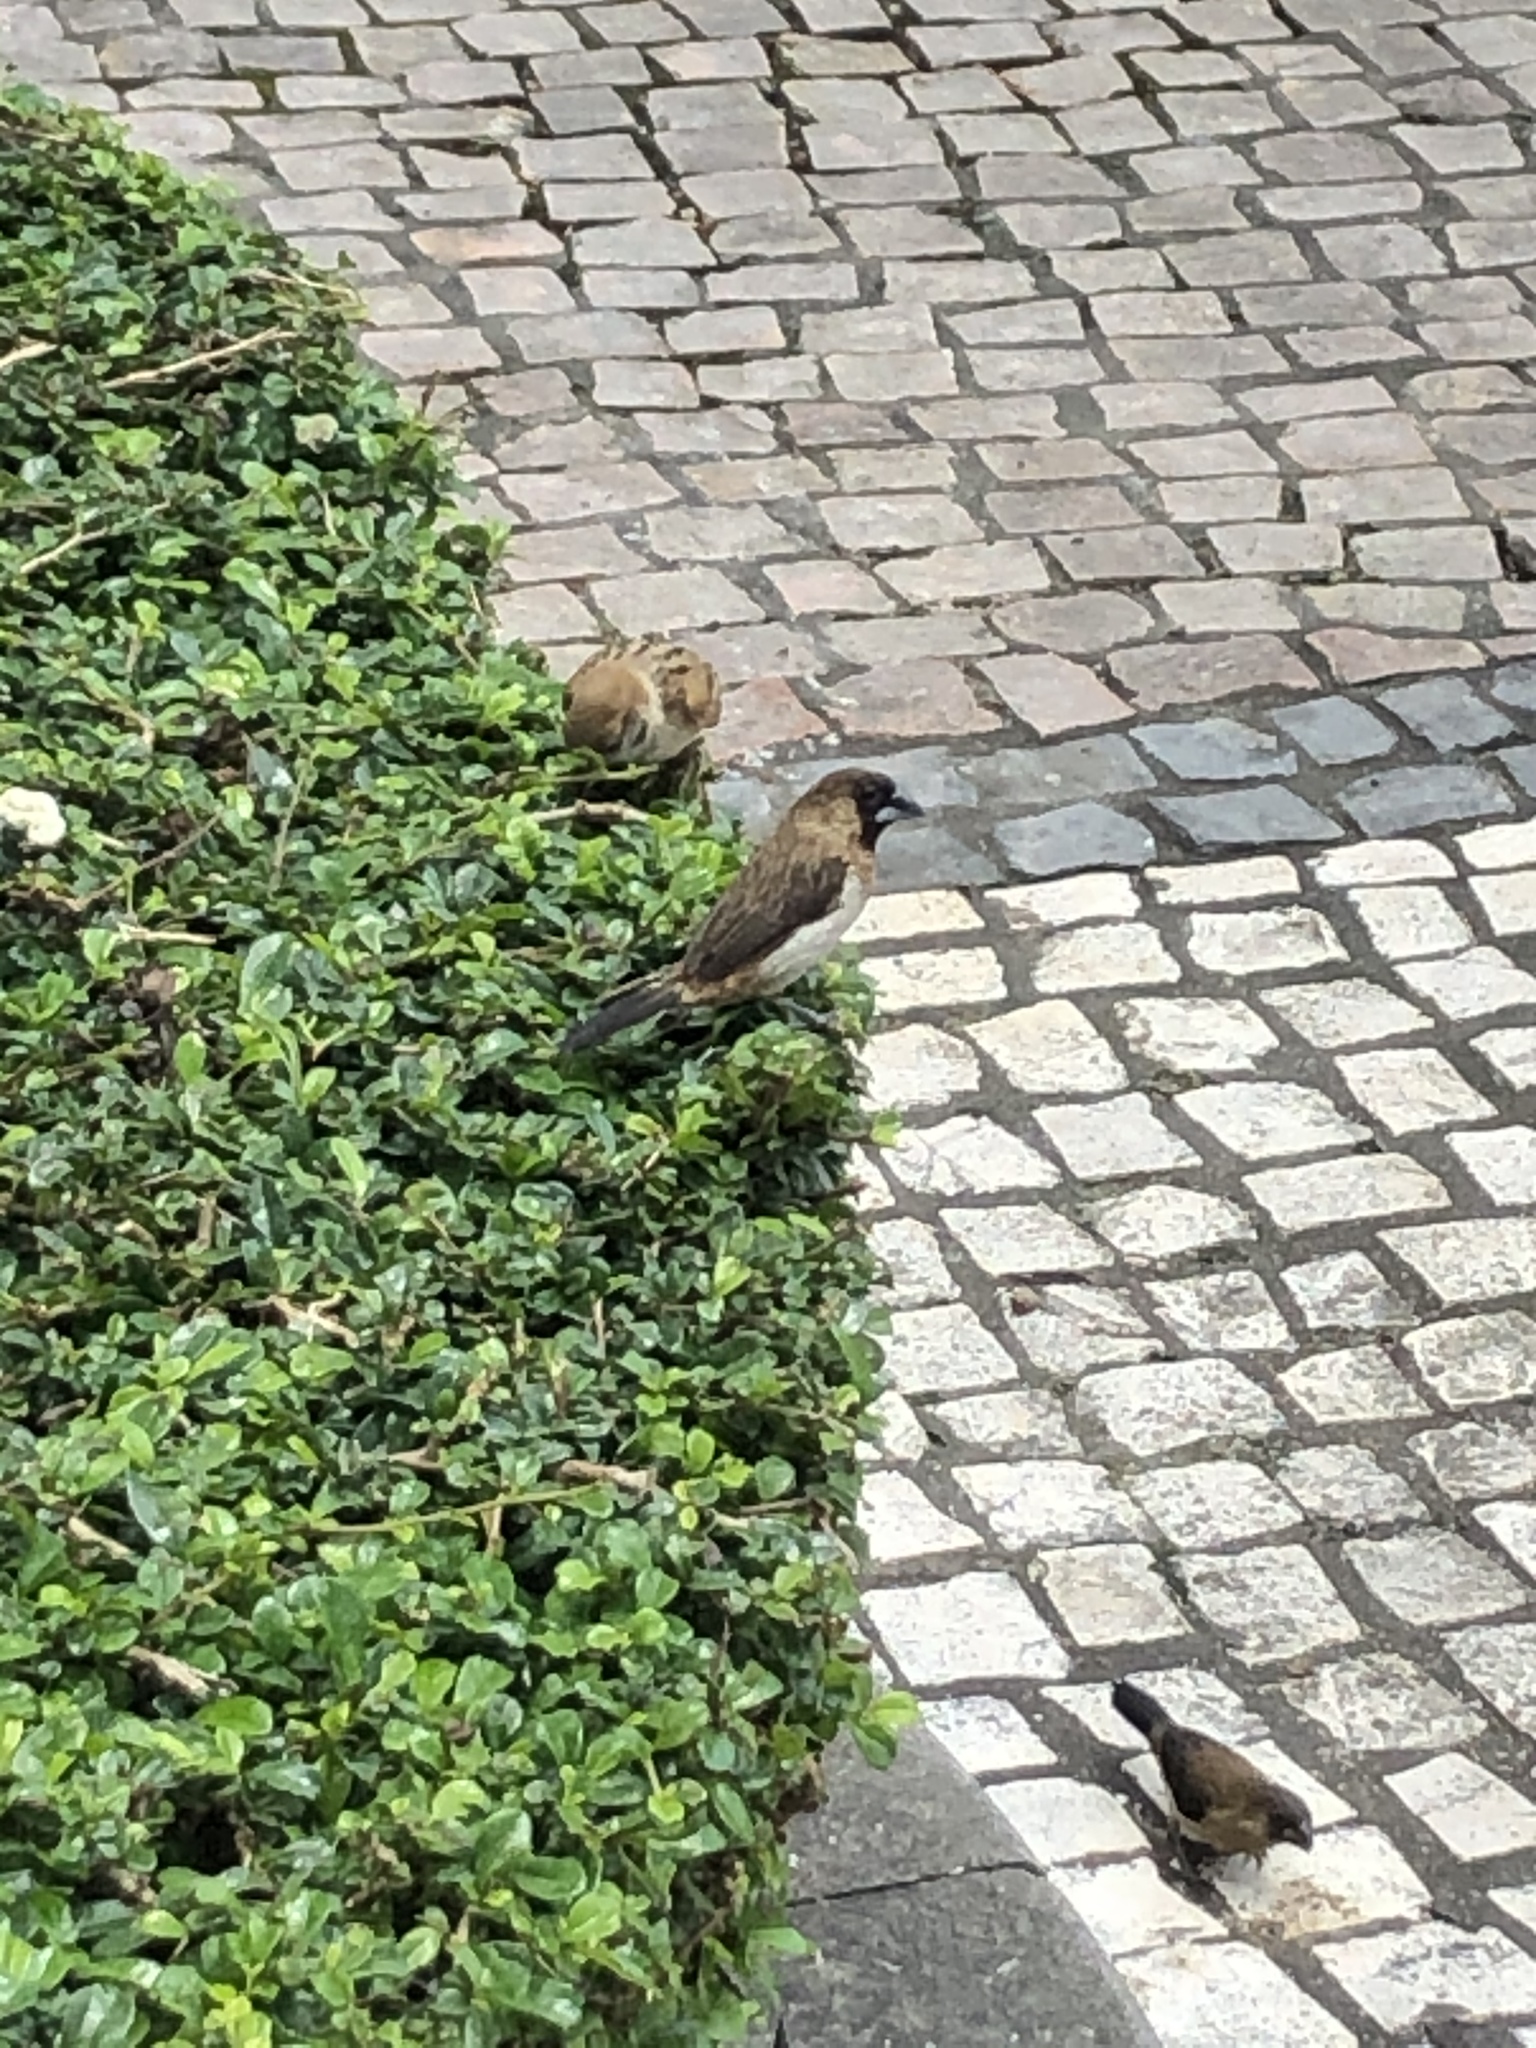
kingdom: Animalia
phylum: Chordata
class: Aves
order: Passeriformes
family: Estrildidae
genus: Lonchura
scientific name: Lonchura striata
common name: White-rumped munia
